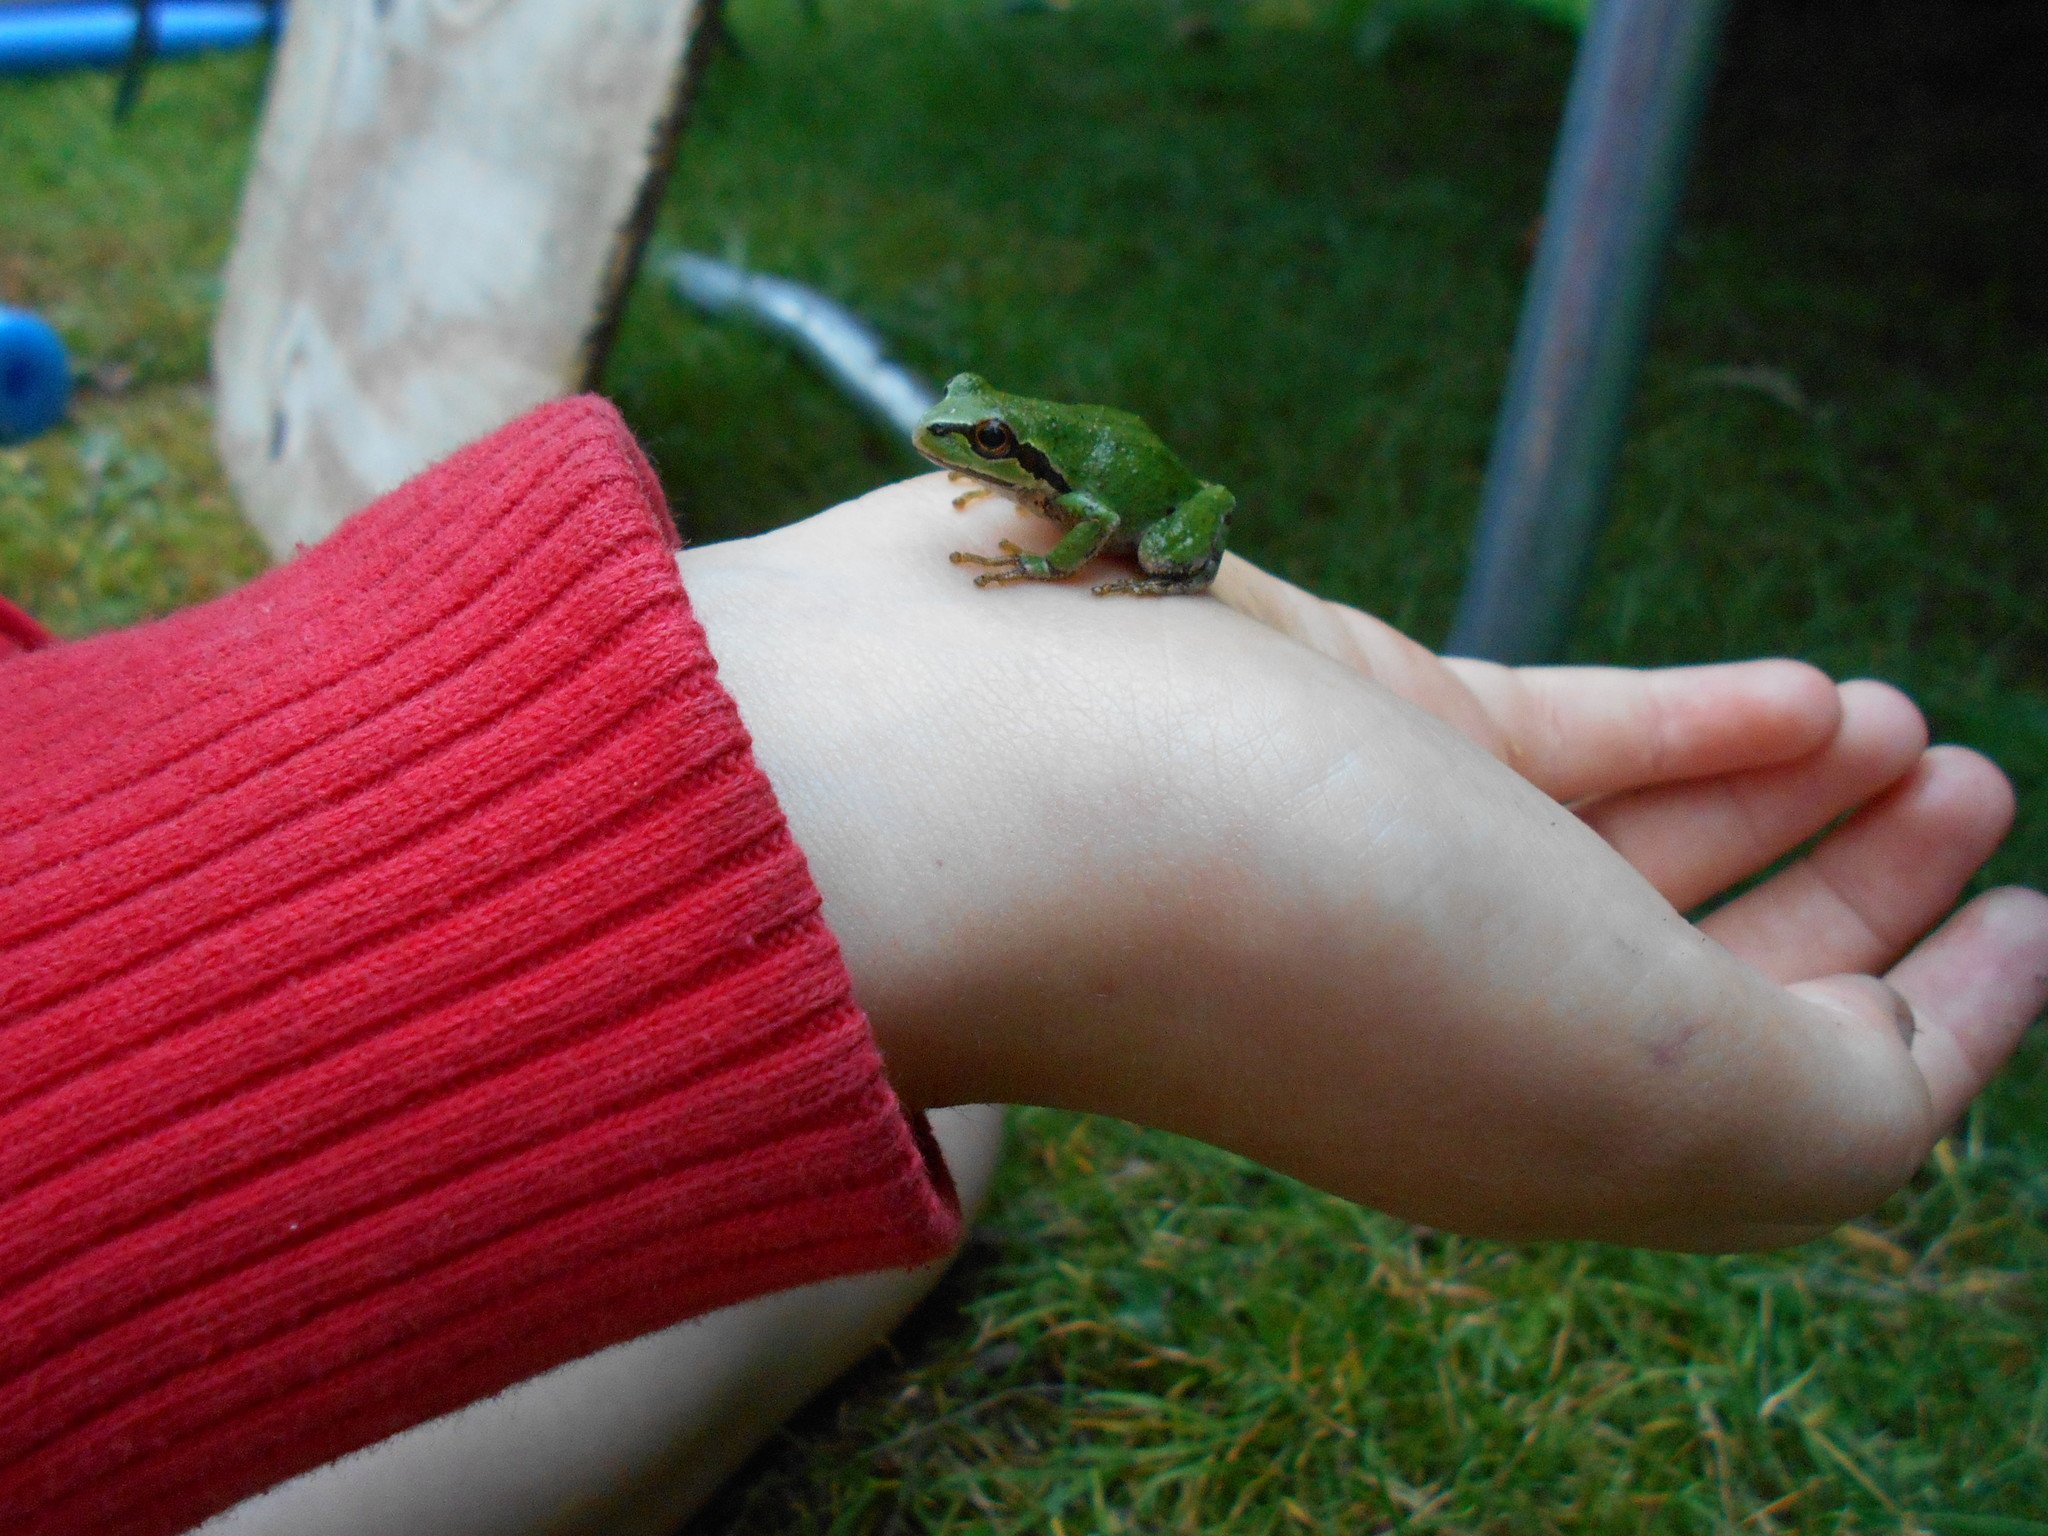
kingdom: Animalia
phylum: Chordata
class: Amphibia
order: Anura
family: Hylidae
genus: Pseudacris
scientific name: Pseudacris regilla
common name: Pacific chorus frog
